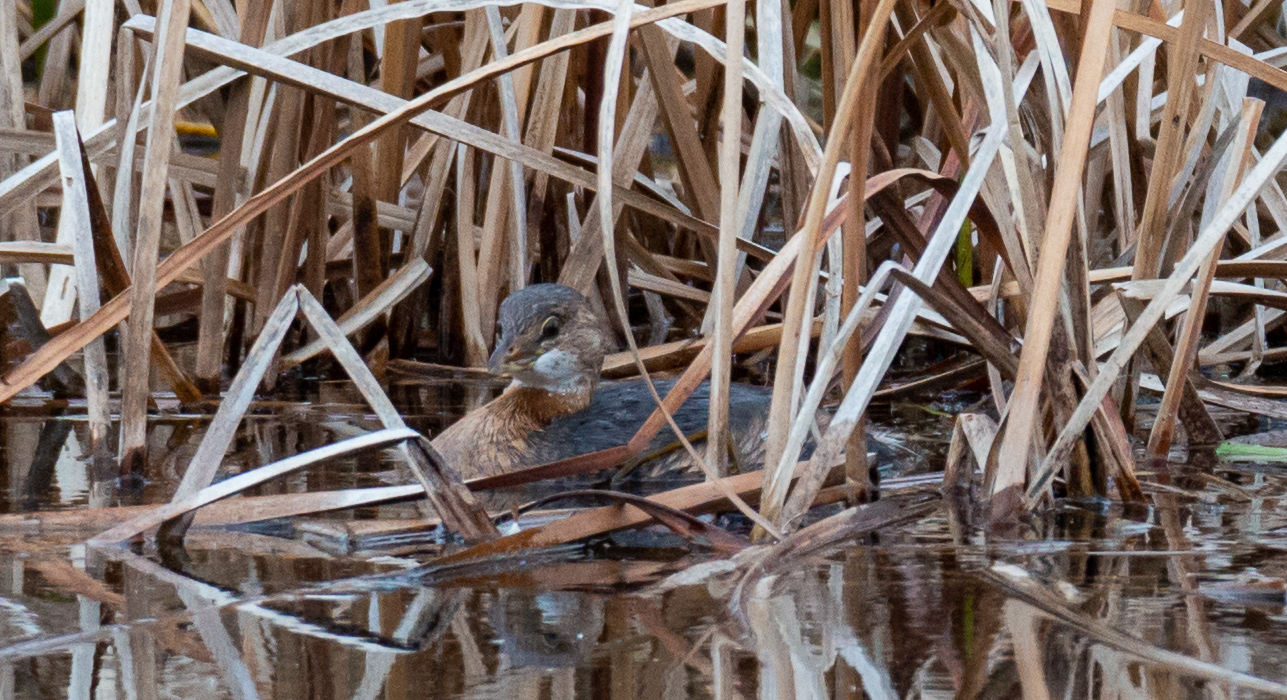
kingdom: Animalia
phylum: Chordata
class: Aves
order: Podicipediformes
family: Podicipedidae
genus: Podilymbus
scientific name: Podilymbus podiceps
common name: Pied-billed grebe
